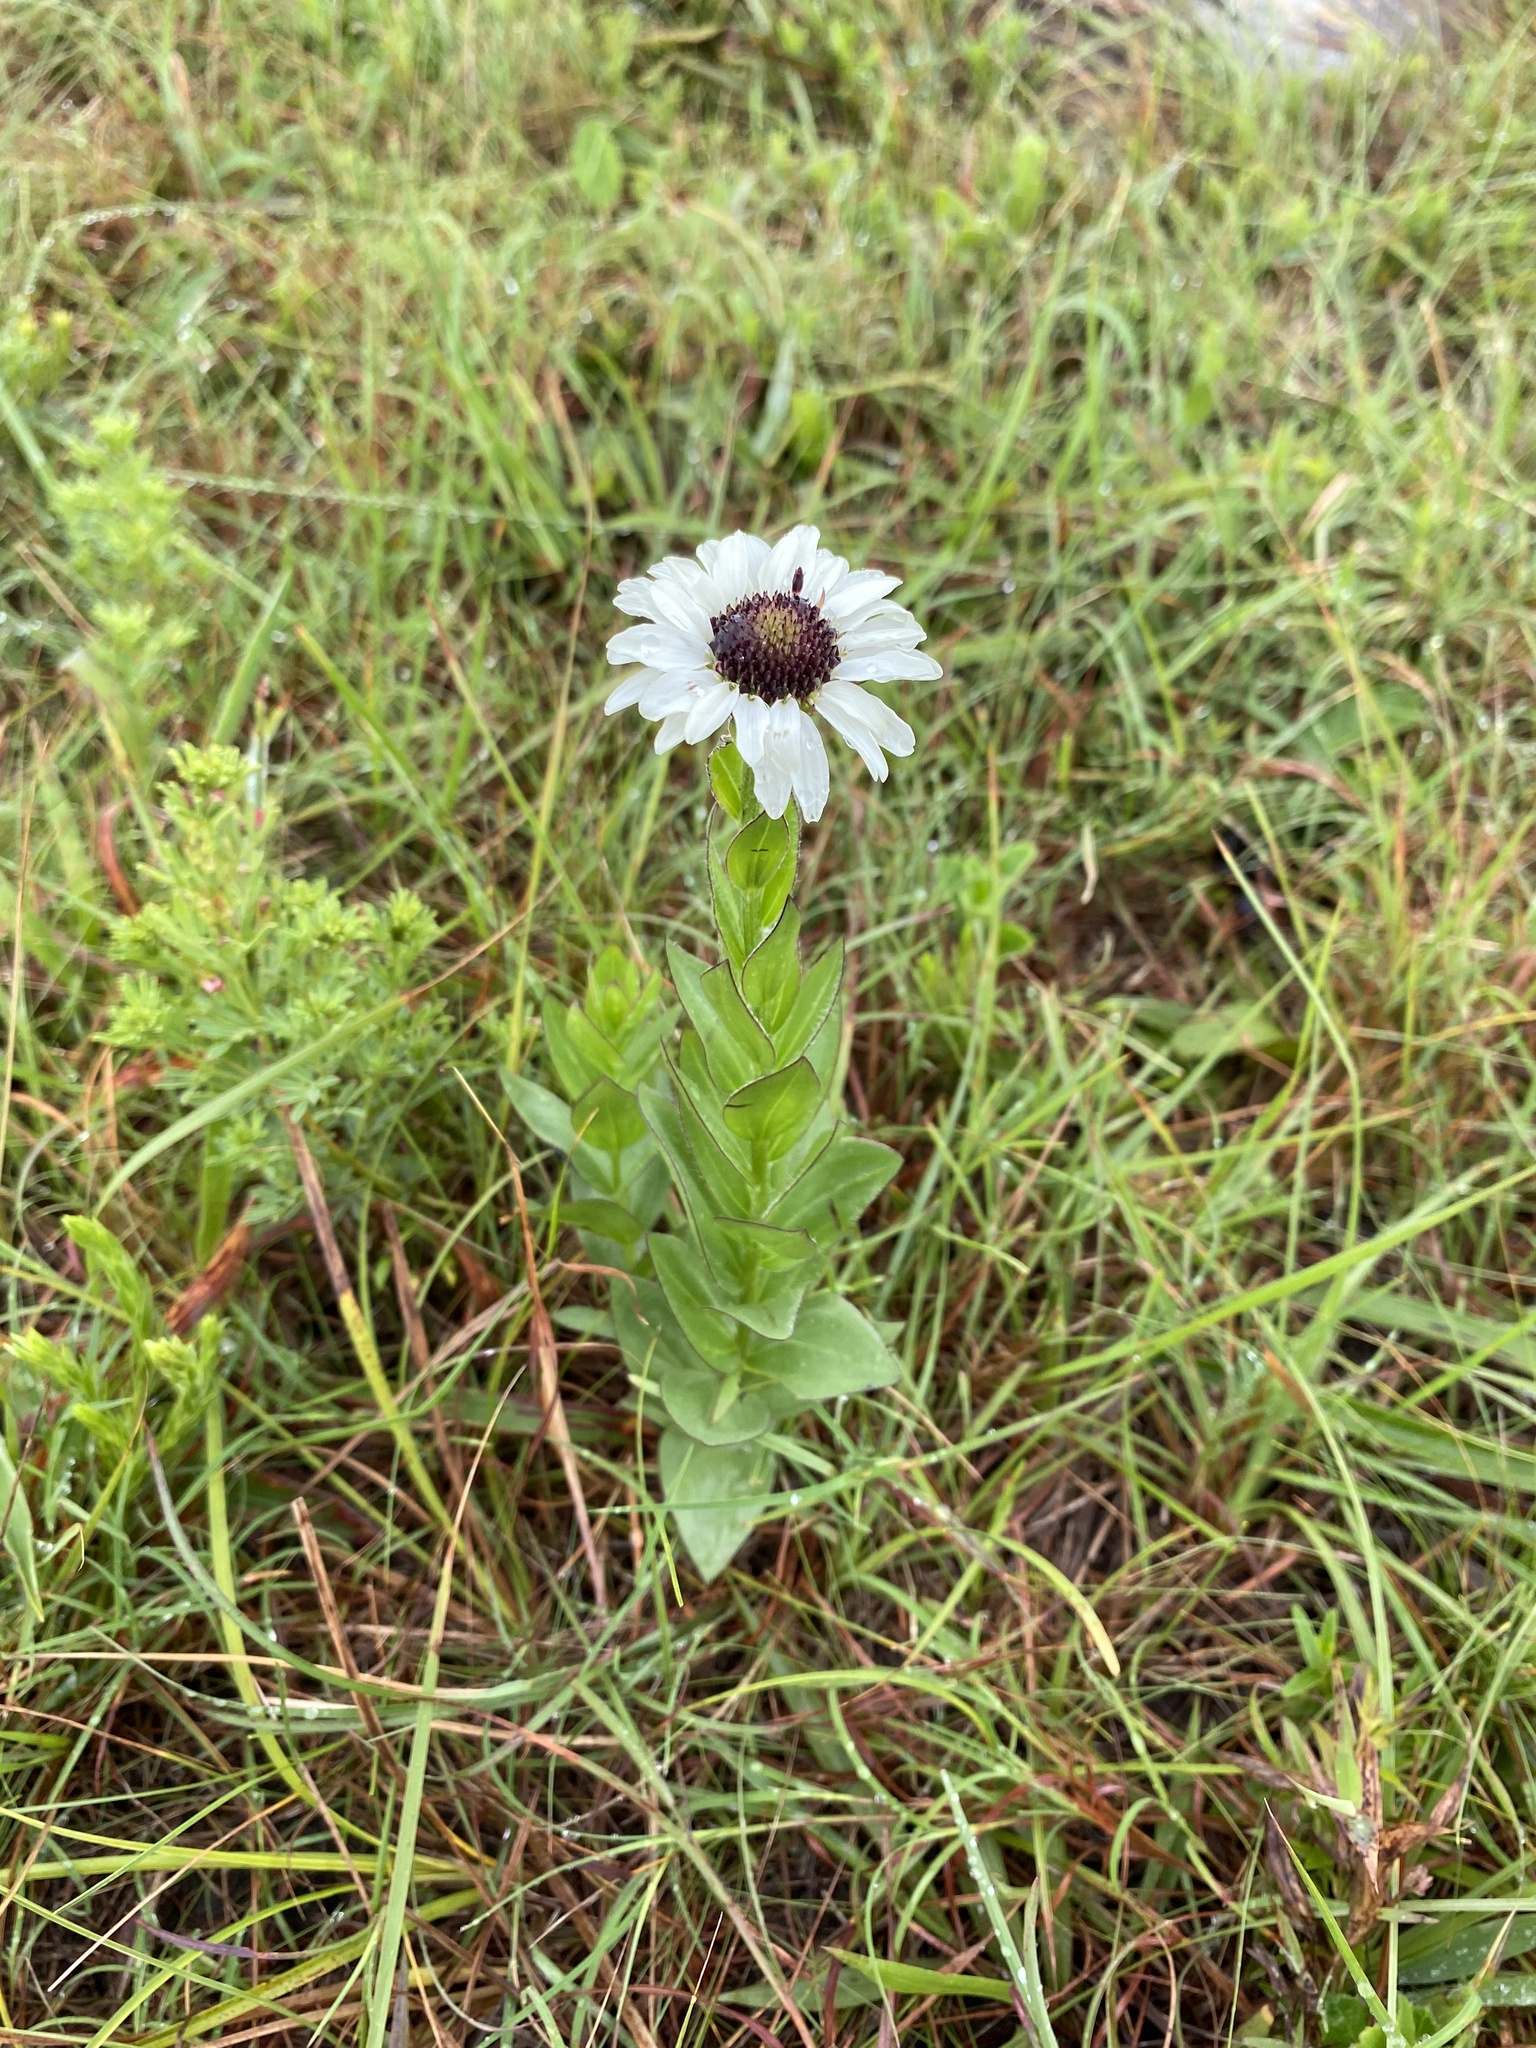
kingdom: Plantae
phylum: Tracheophyta
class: Magnoliopsida
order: Asterales
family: Asteraceae
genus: Callilepis
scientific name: Callilepis laureola
